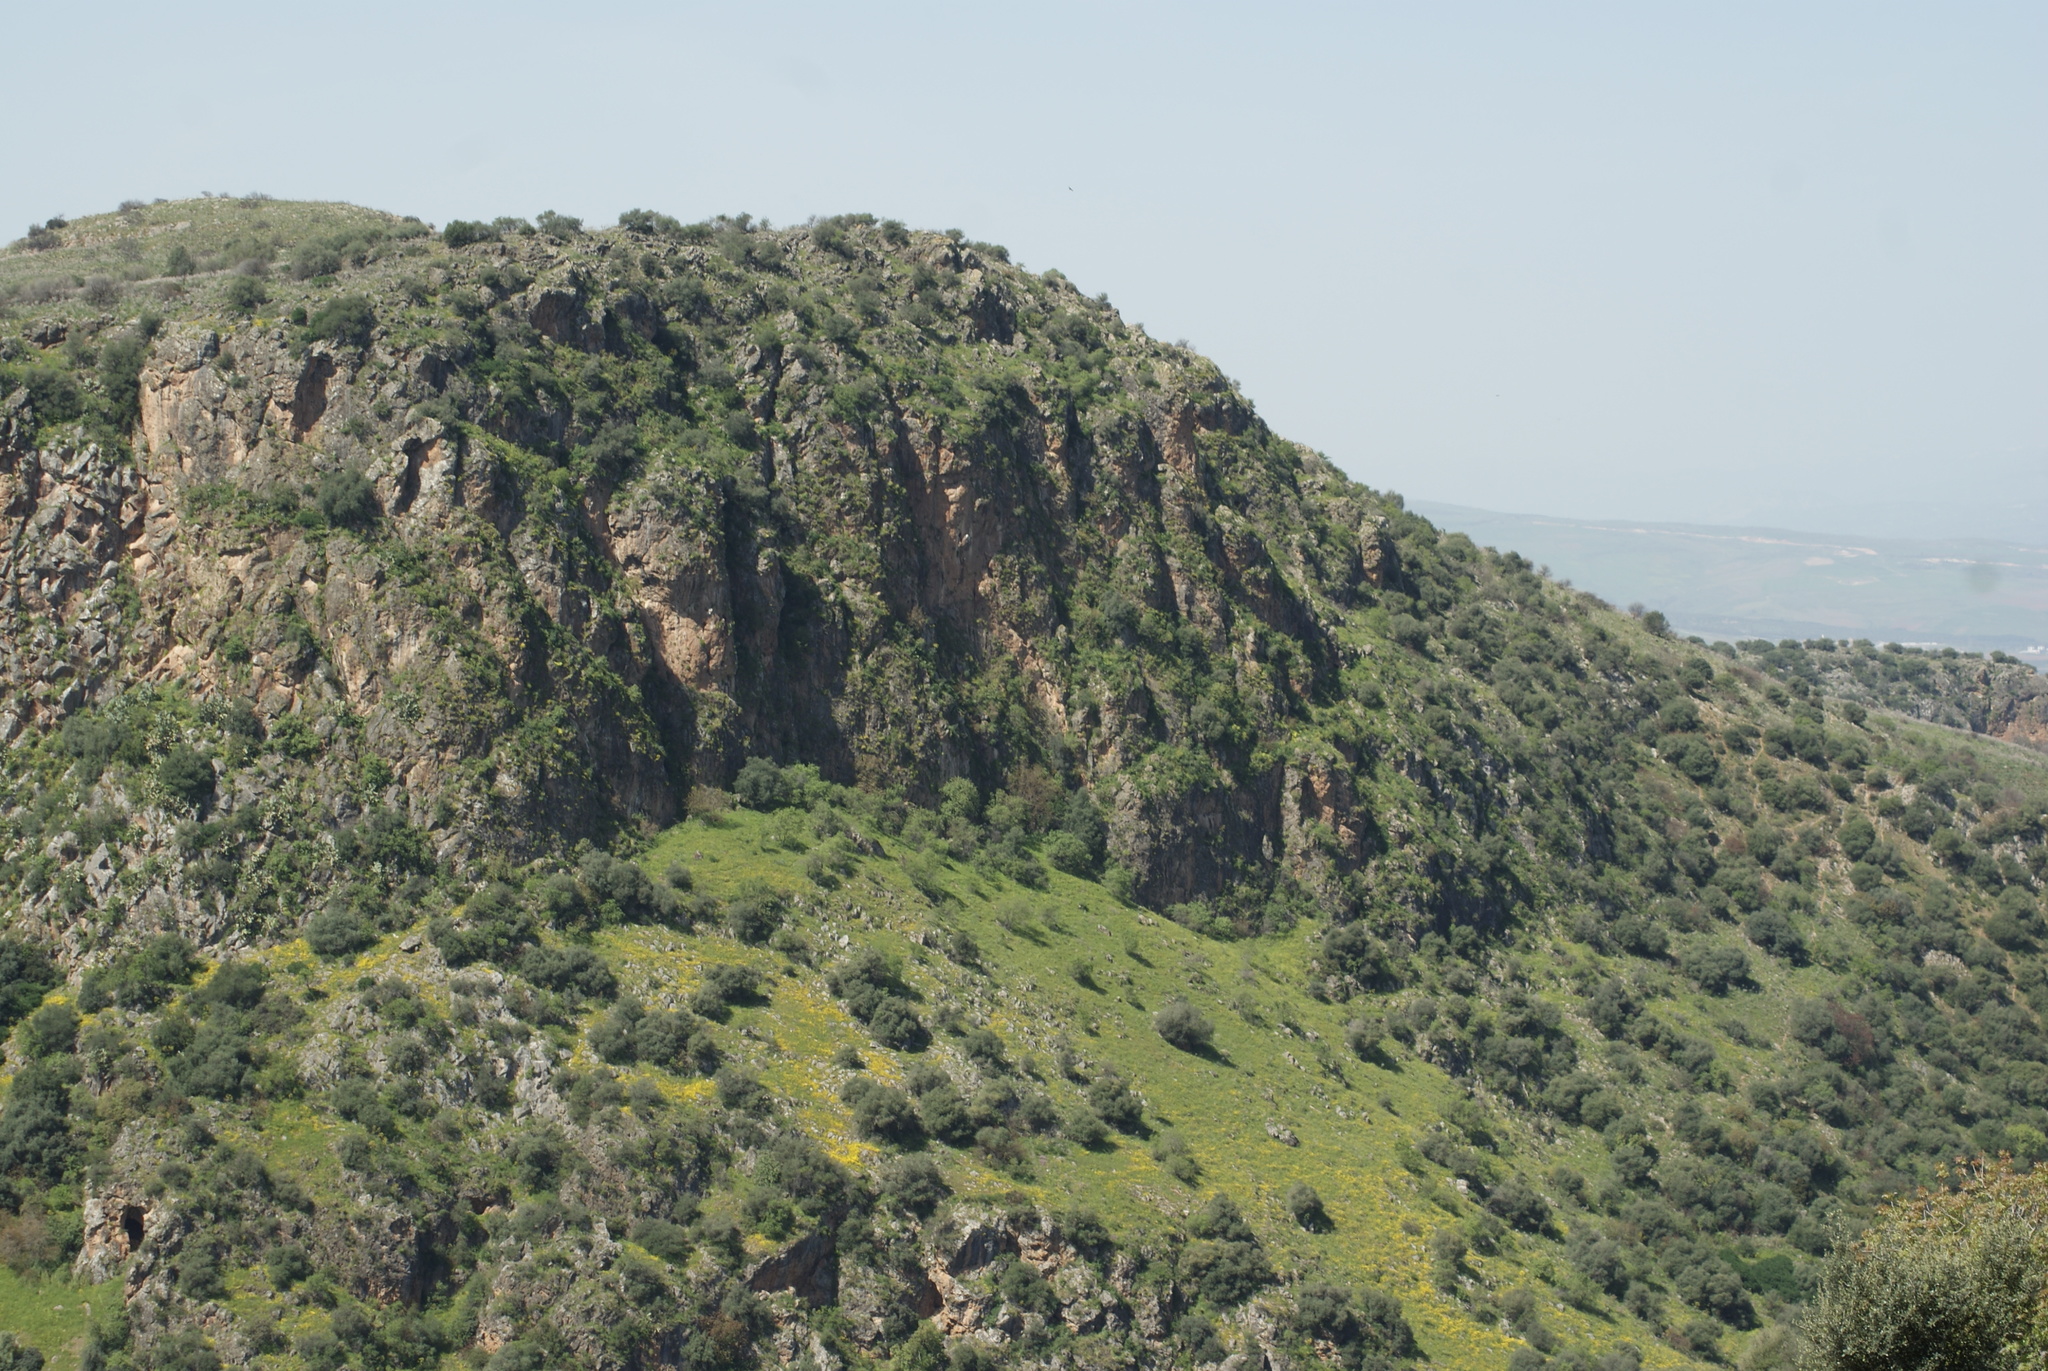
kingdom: Plantae
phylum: Tracheophyta
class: Magnoliopsida
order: Lamiales
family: Oleaceae
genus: Olea
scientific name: Olea europaea
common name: Olive
